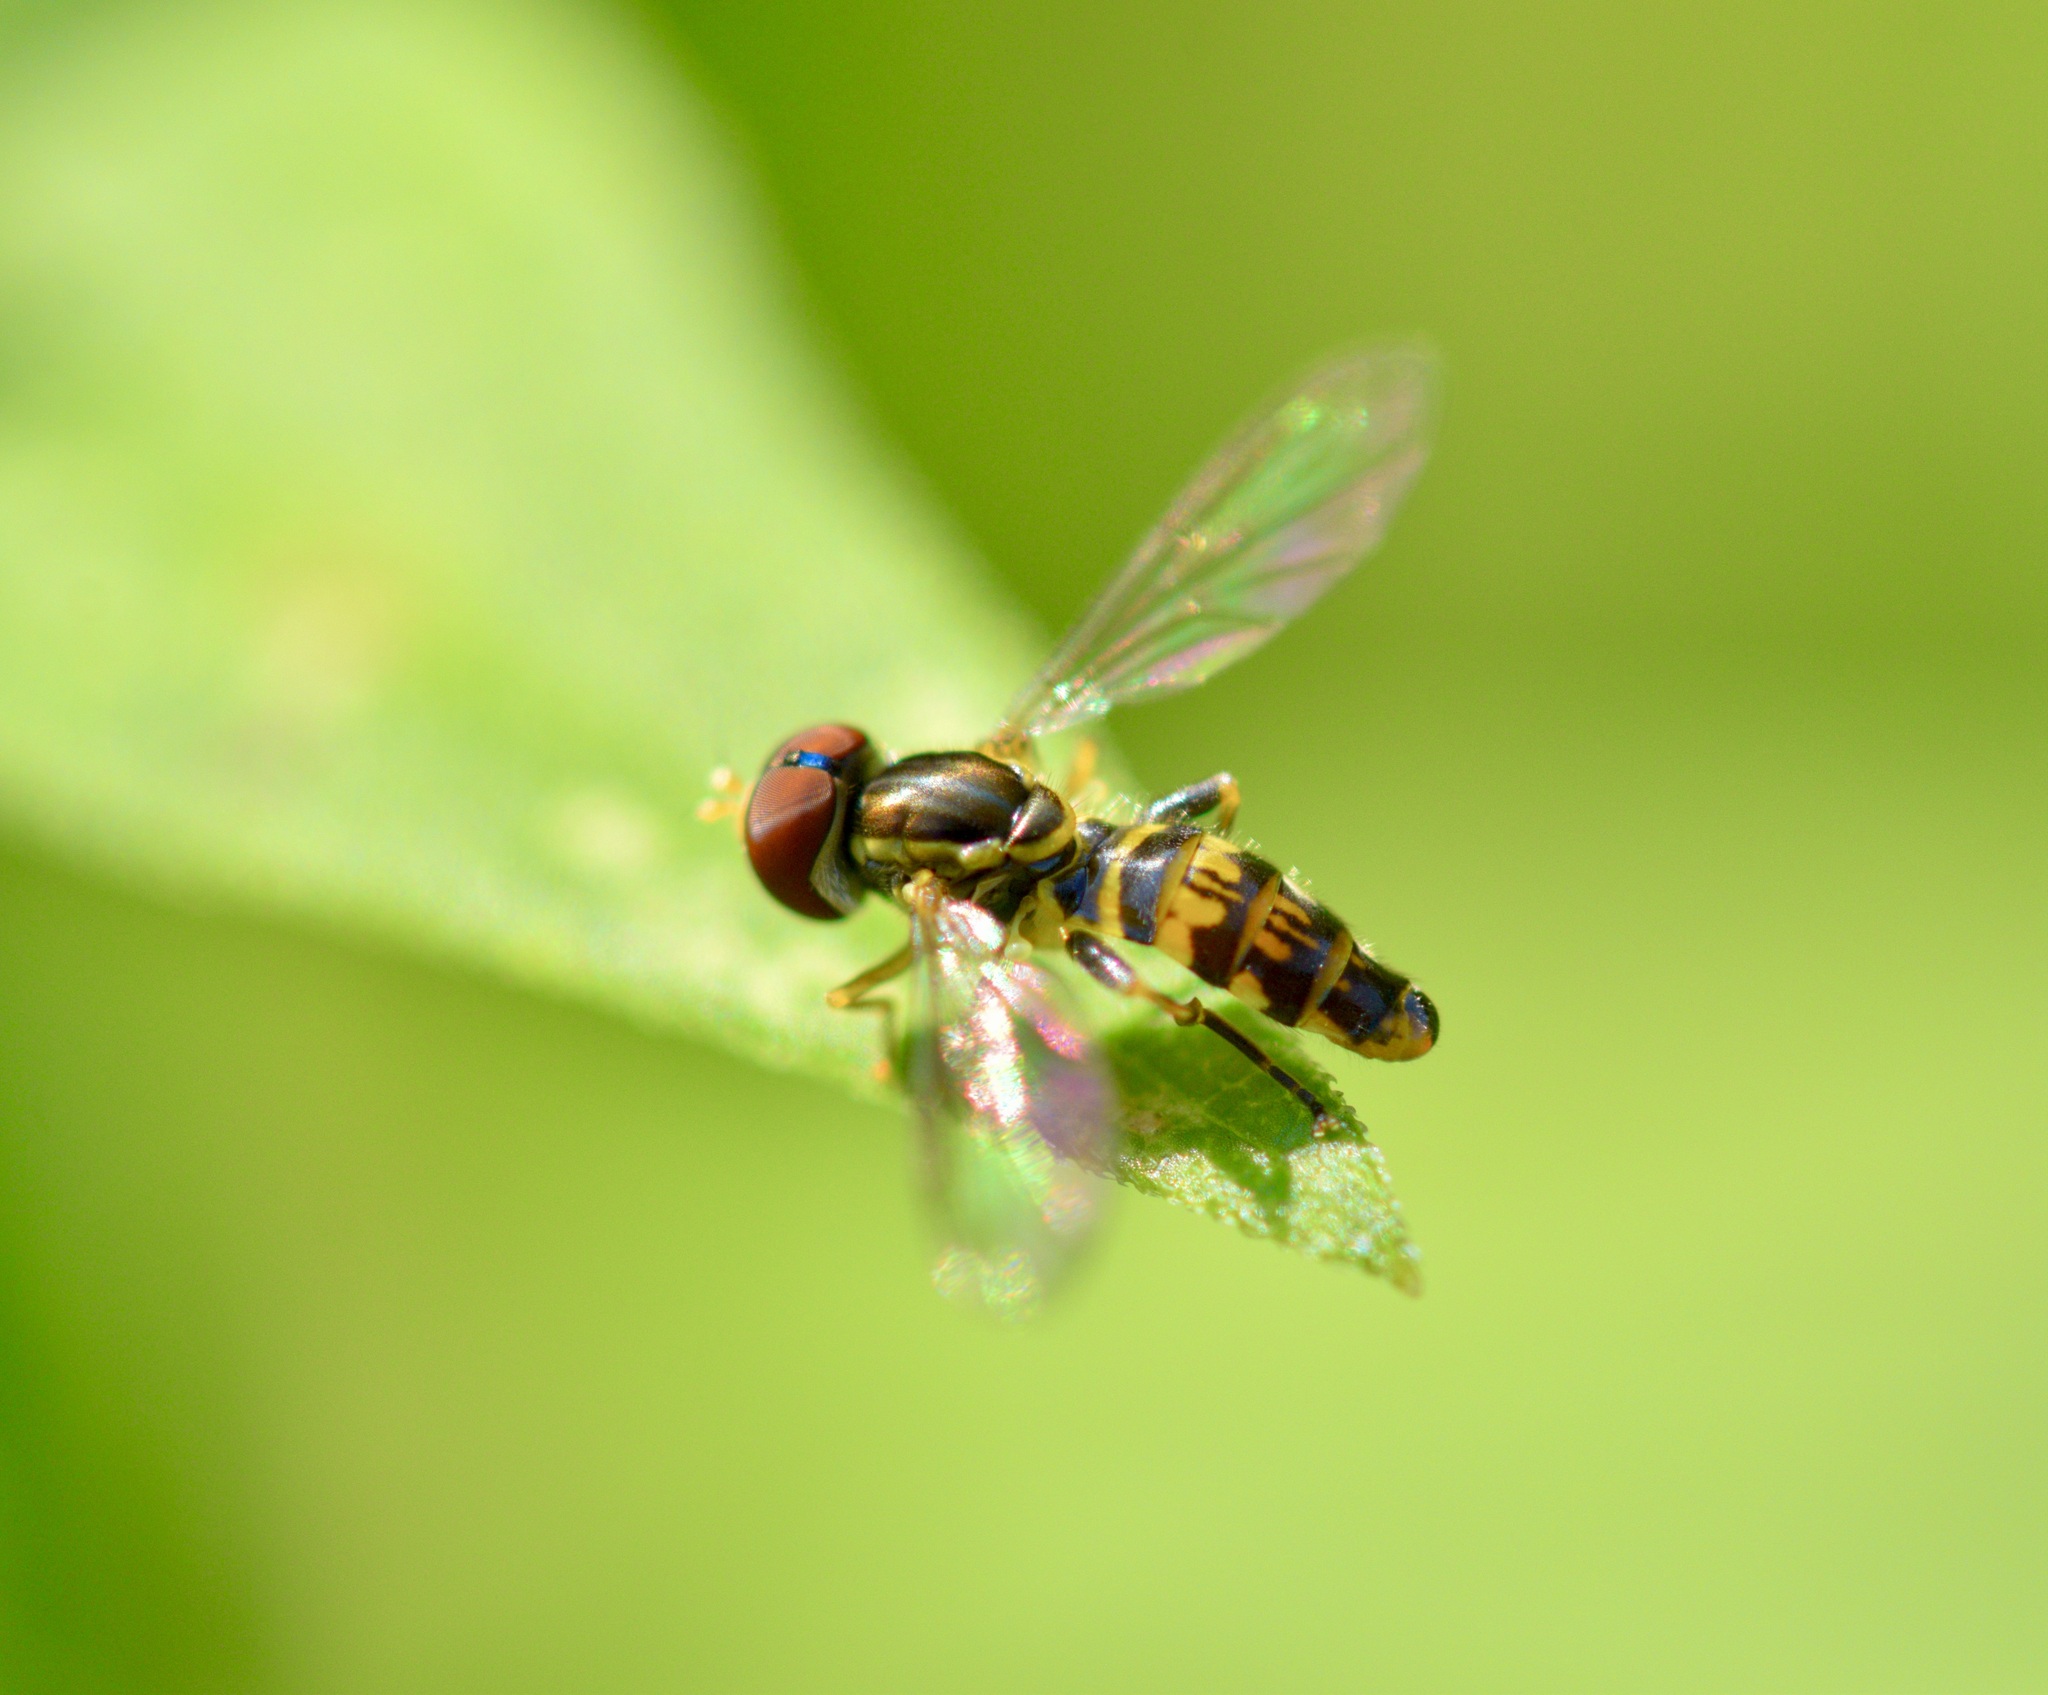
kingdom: Animalia
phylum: Arthropoda
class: Insecta
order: Diptera
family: Syrphidae
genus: Toxomerus
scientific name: Toxomerus geminatus
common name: Eastern calligrapher
